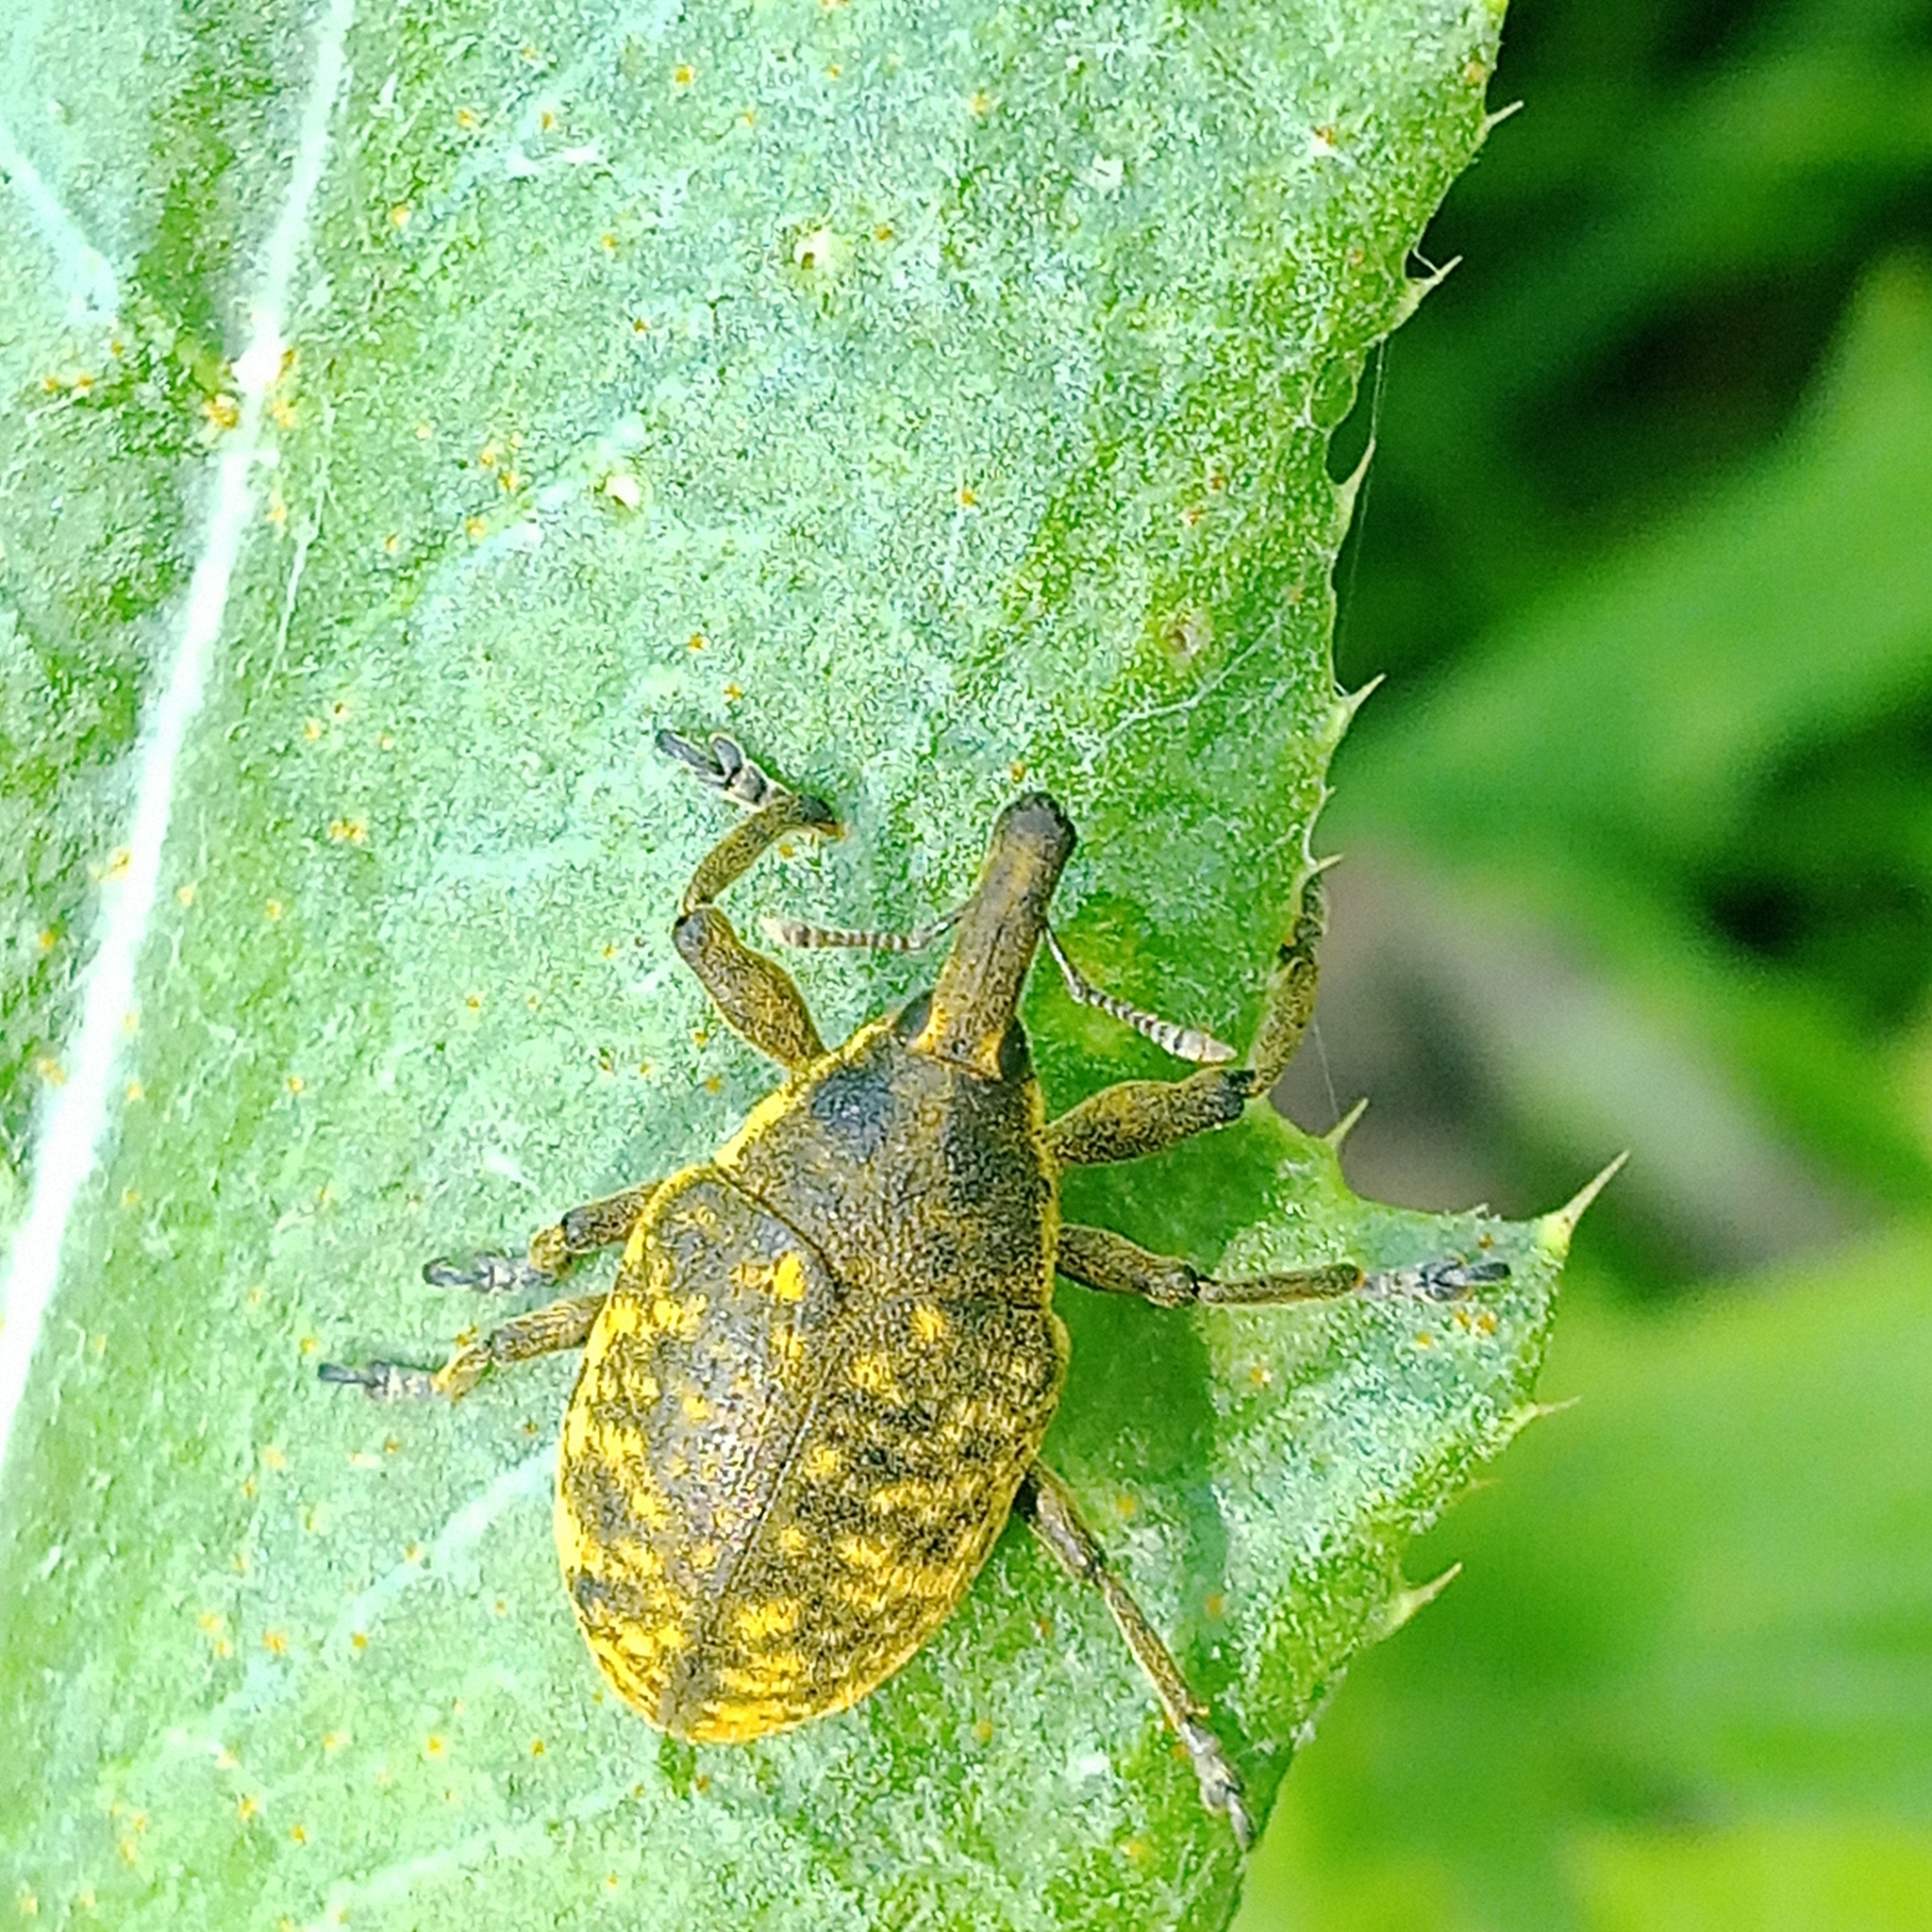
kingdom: Animalia
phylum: Arthropoda
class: Insecta
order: Coleoptera
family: Curculionidae
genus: Larinus
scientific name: Larinus sturnus
